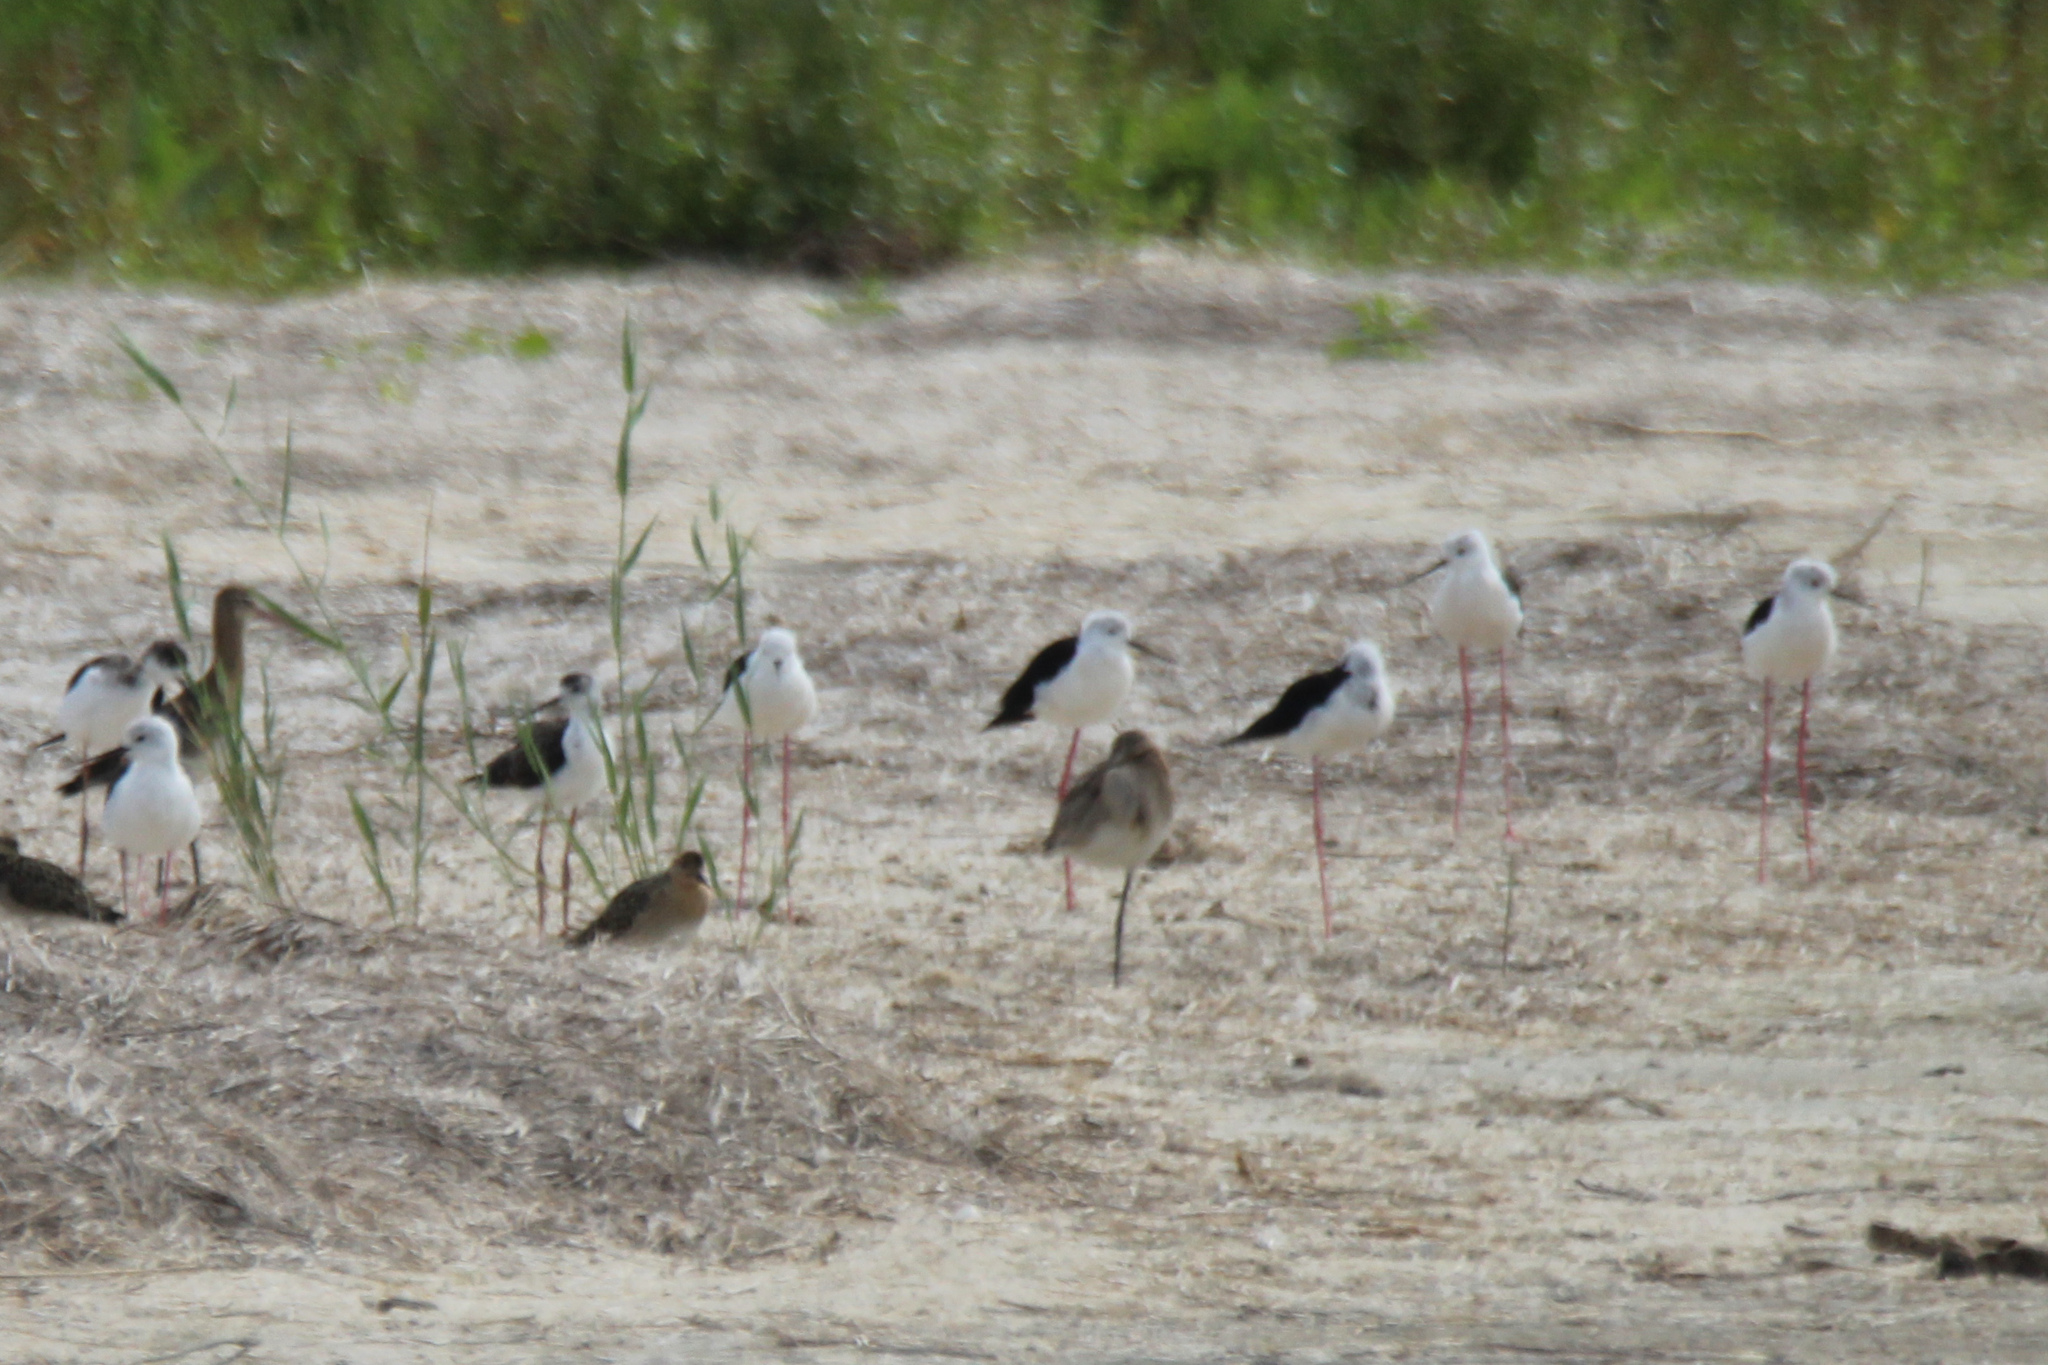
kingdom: Animalia
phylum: Chordata
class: Aves
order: Charadriiformes
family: Recurvirostridae
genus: Himantopus
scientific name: Himantopus himantopus
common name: Black-winged stilt
